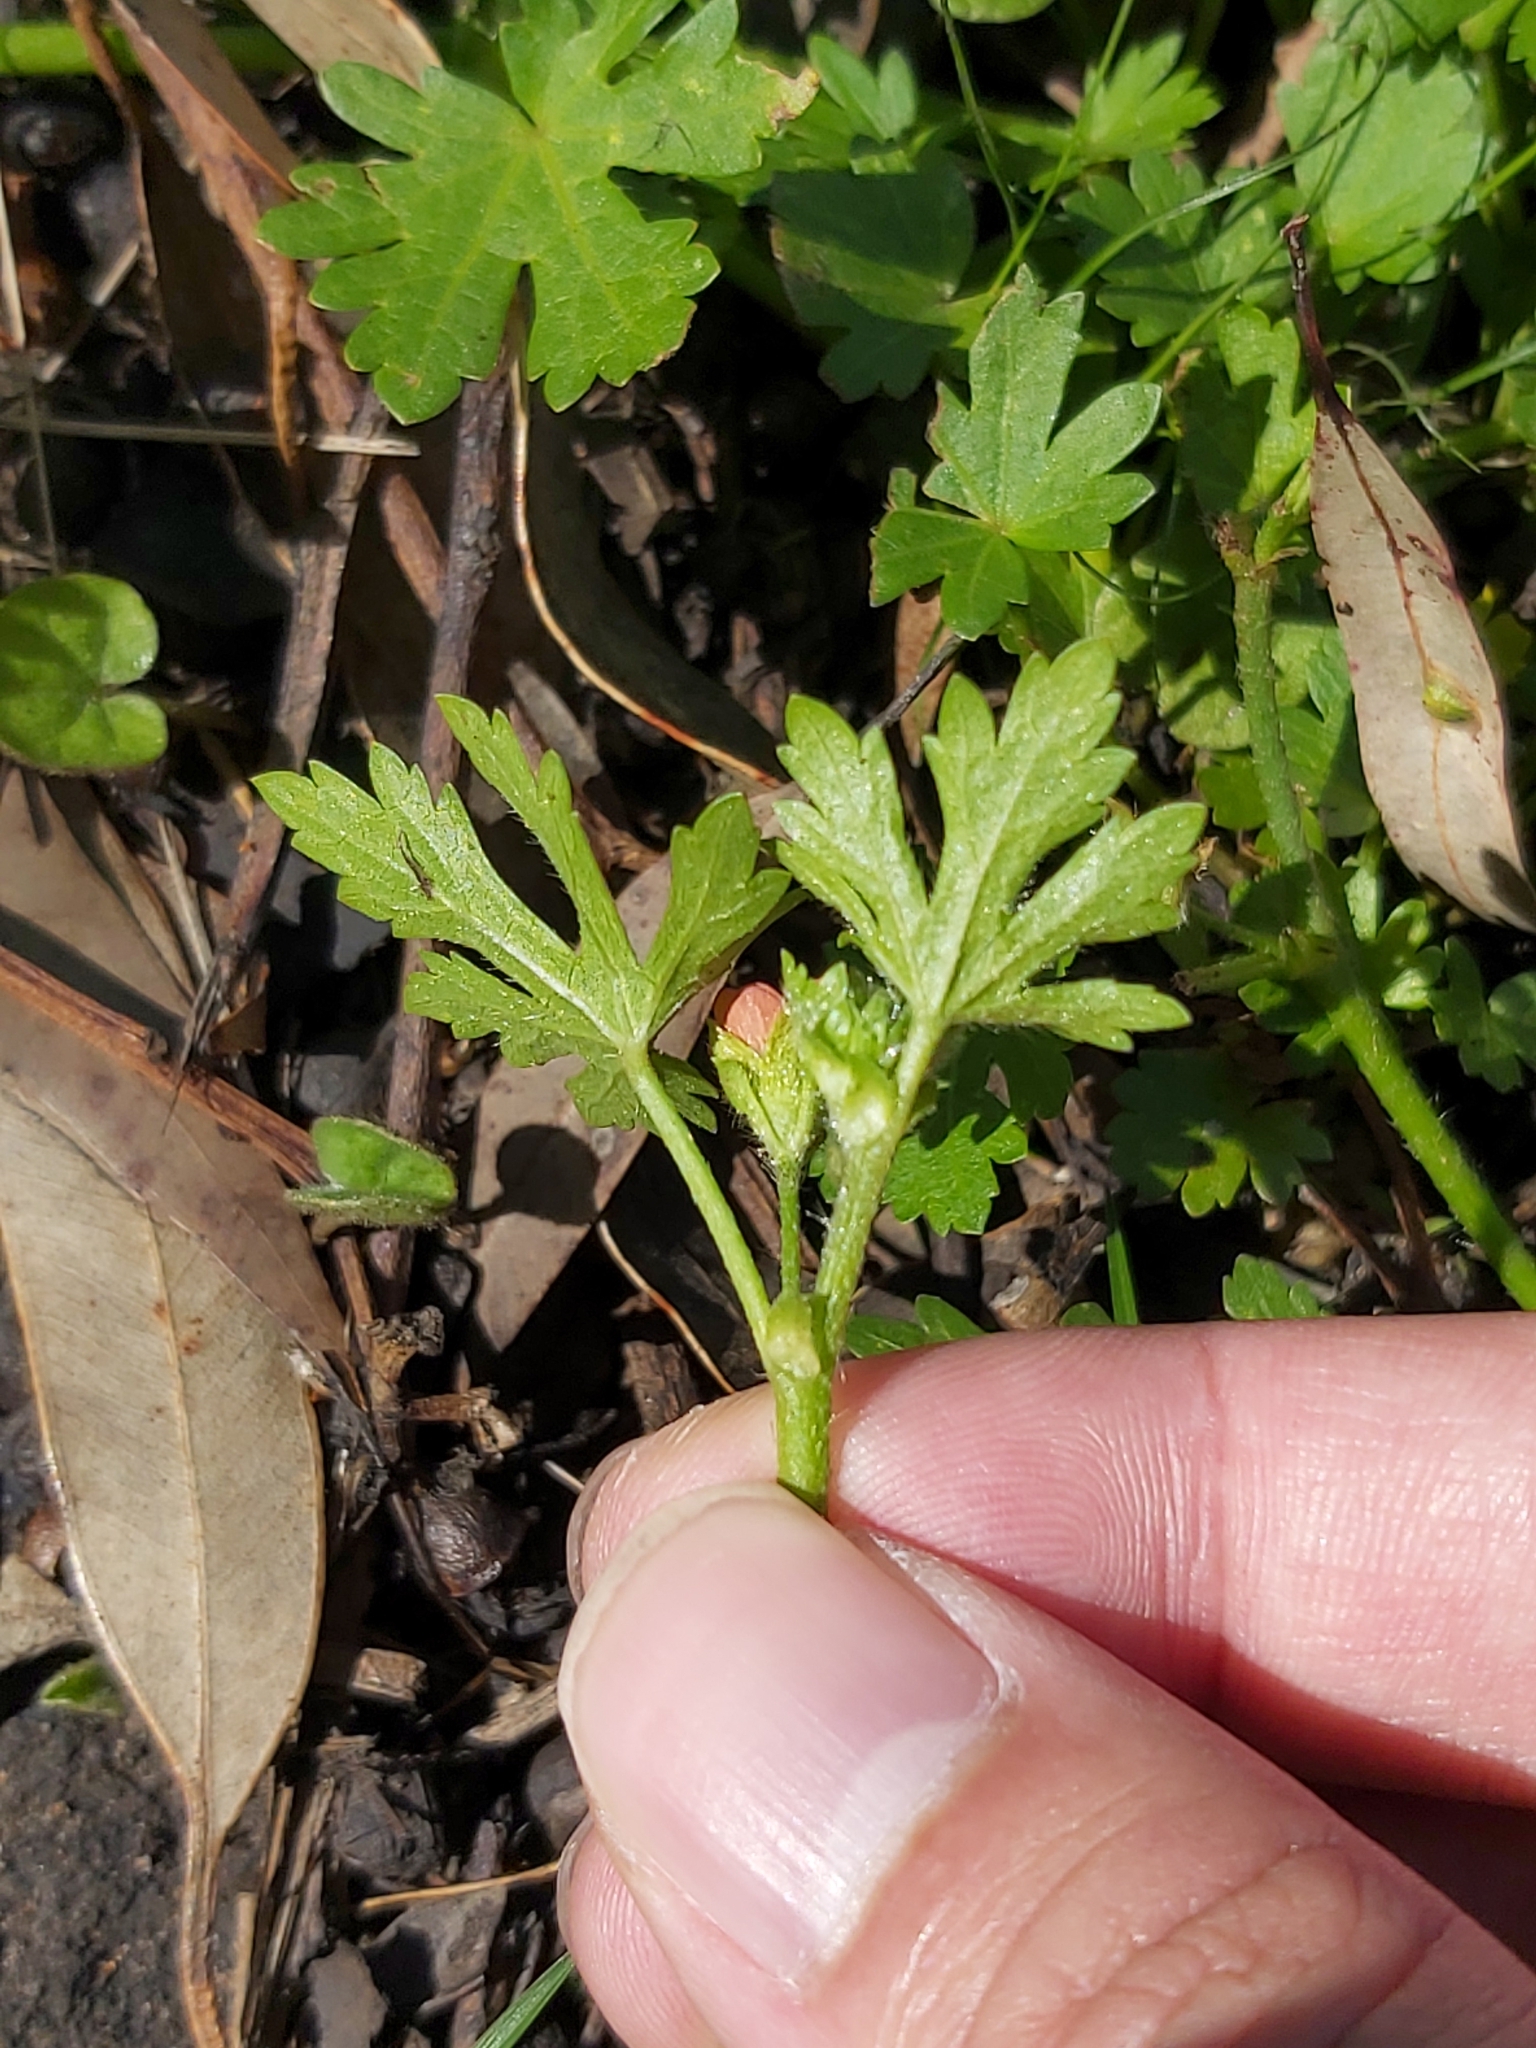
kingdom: Plantae
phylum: Tracheophyta
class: Magnoliopsida
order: Malvales
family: Malvaceae
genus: Modiola
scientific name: Modiola caroliniana
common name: Carolina bristlemallow
